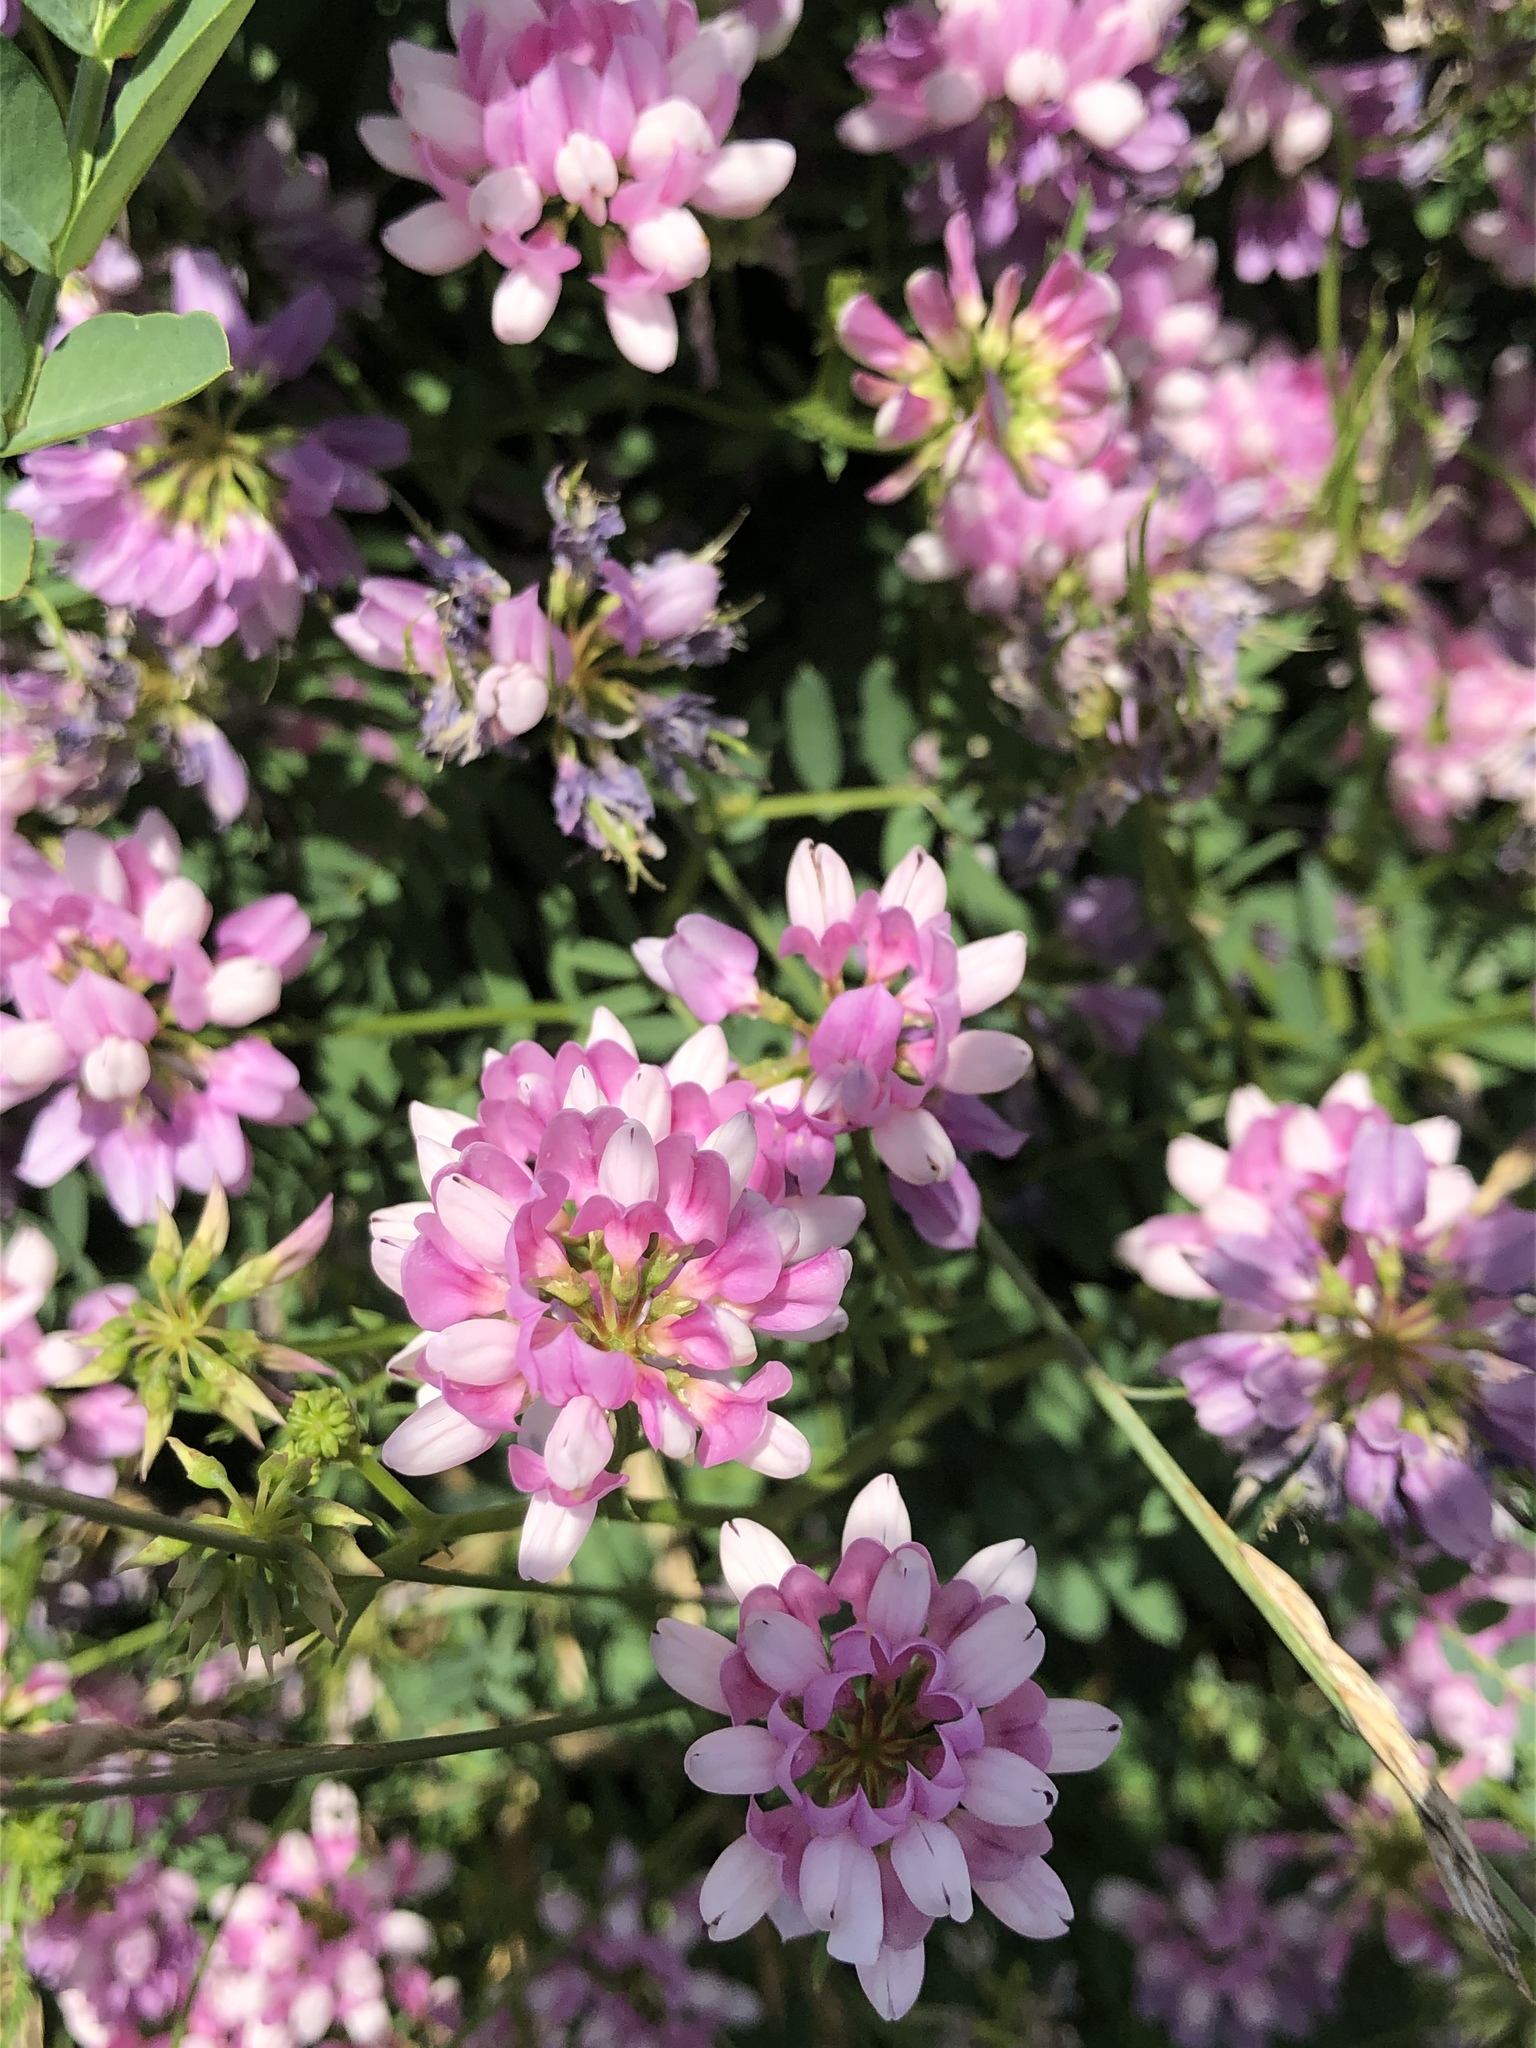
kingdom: Plantae
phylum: Tracheophyta
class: Magnoliopsida
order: Fabales
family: Fabaceae
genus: Coronilla
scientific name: Coronilla varia
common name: Crownvetch
